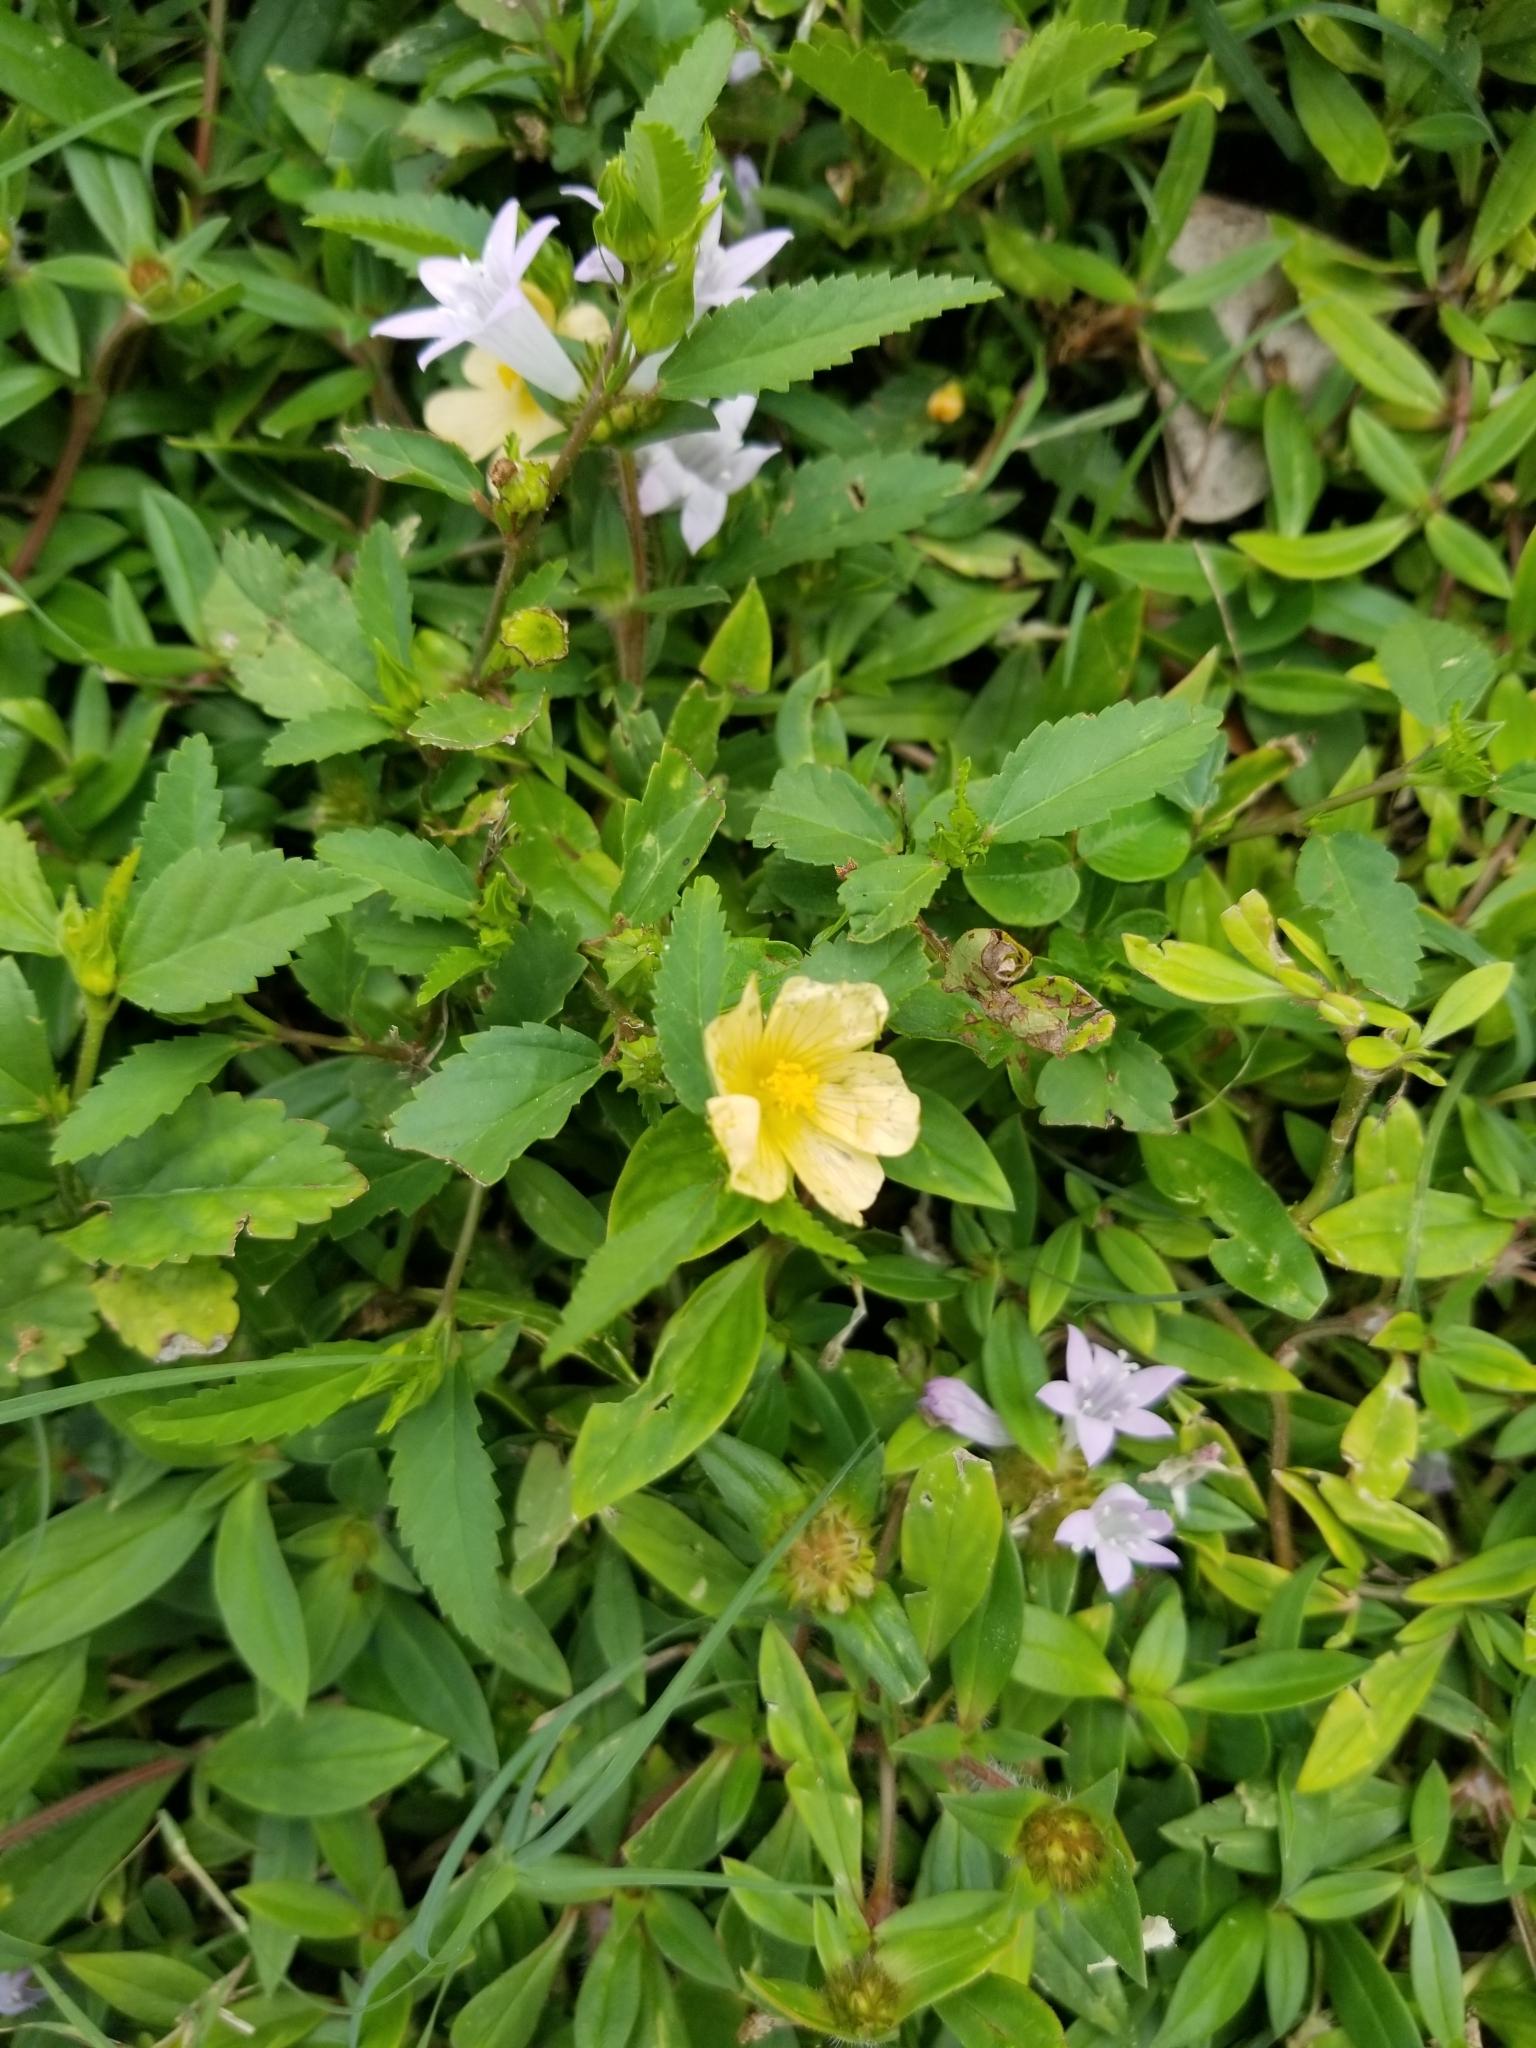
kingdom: Plantae
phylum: Tracheophyta
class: Magnoliopsida
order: Malvales
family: Malvaceae
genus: Sida
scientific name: Sida ulmifolia
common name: Broom weed
